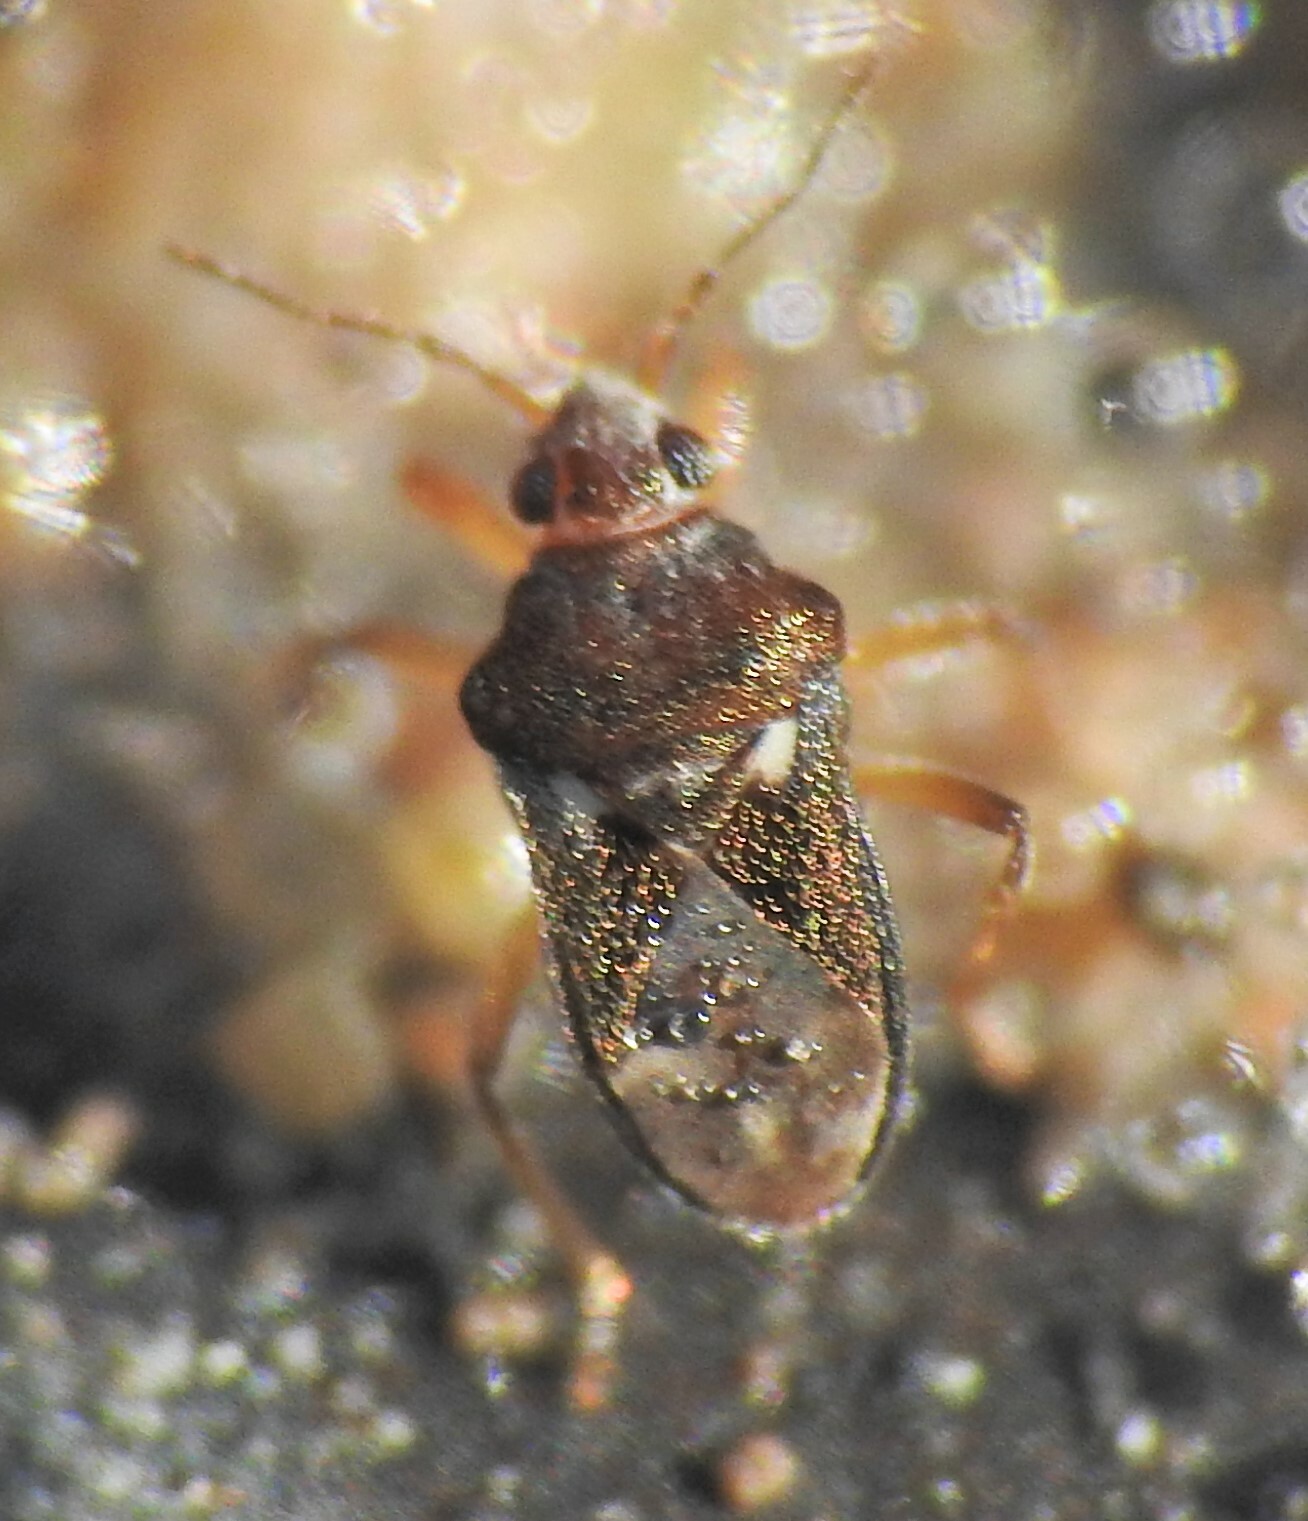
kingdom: Animalia
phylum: Arthropoda
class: Insecta
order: Hemiptera
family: Hebridae
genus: Hebrus
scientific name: Hebrus
